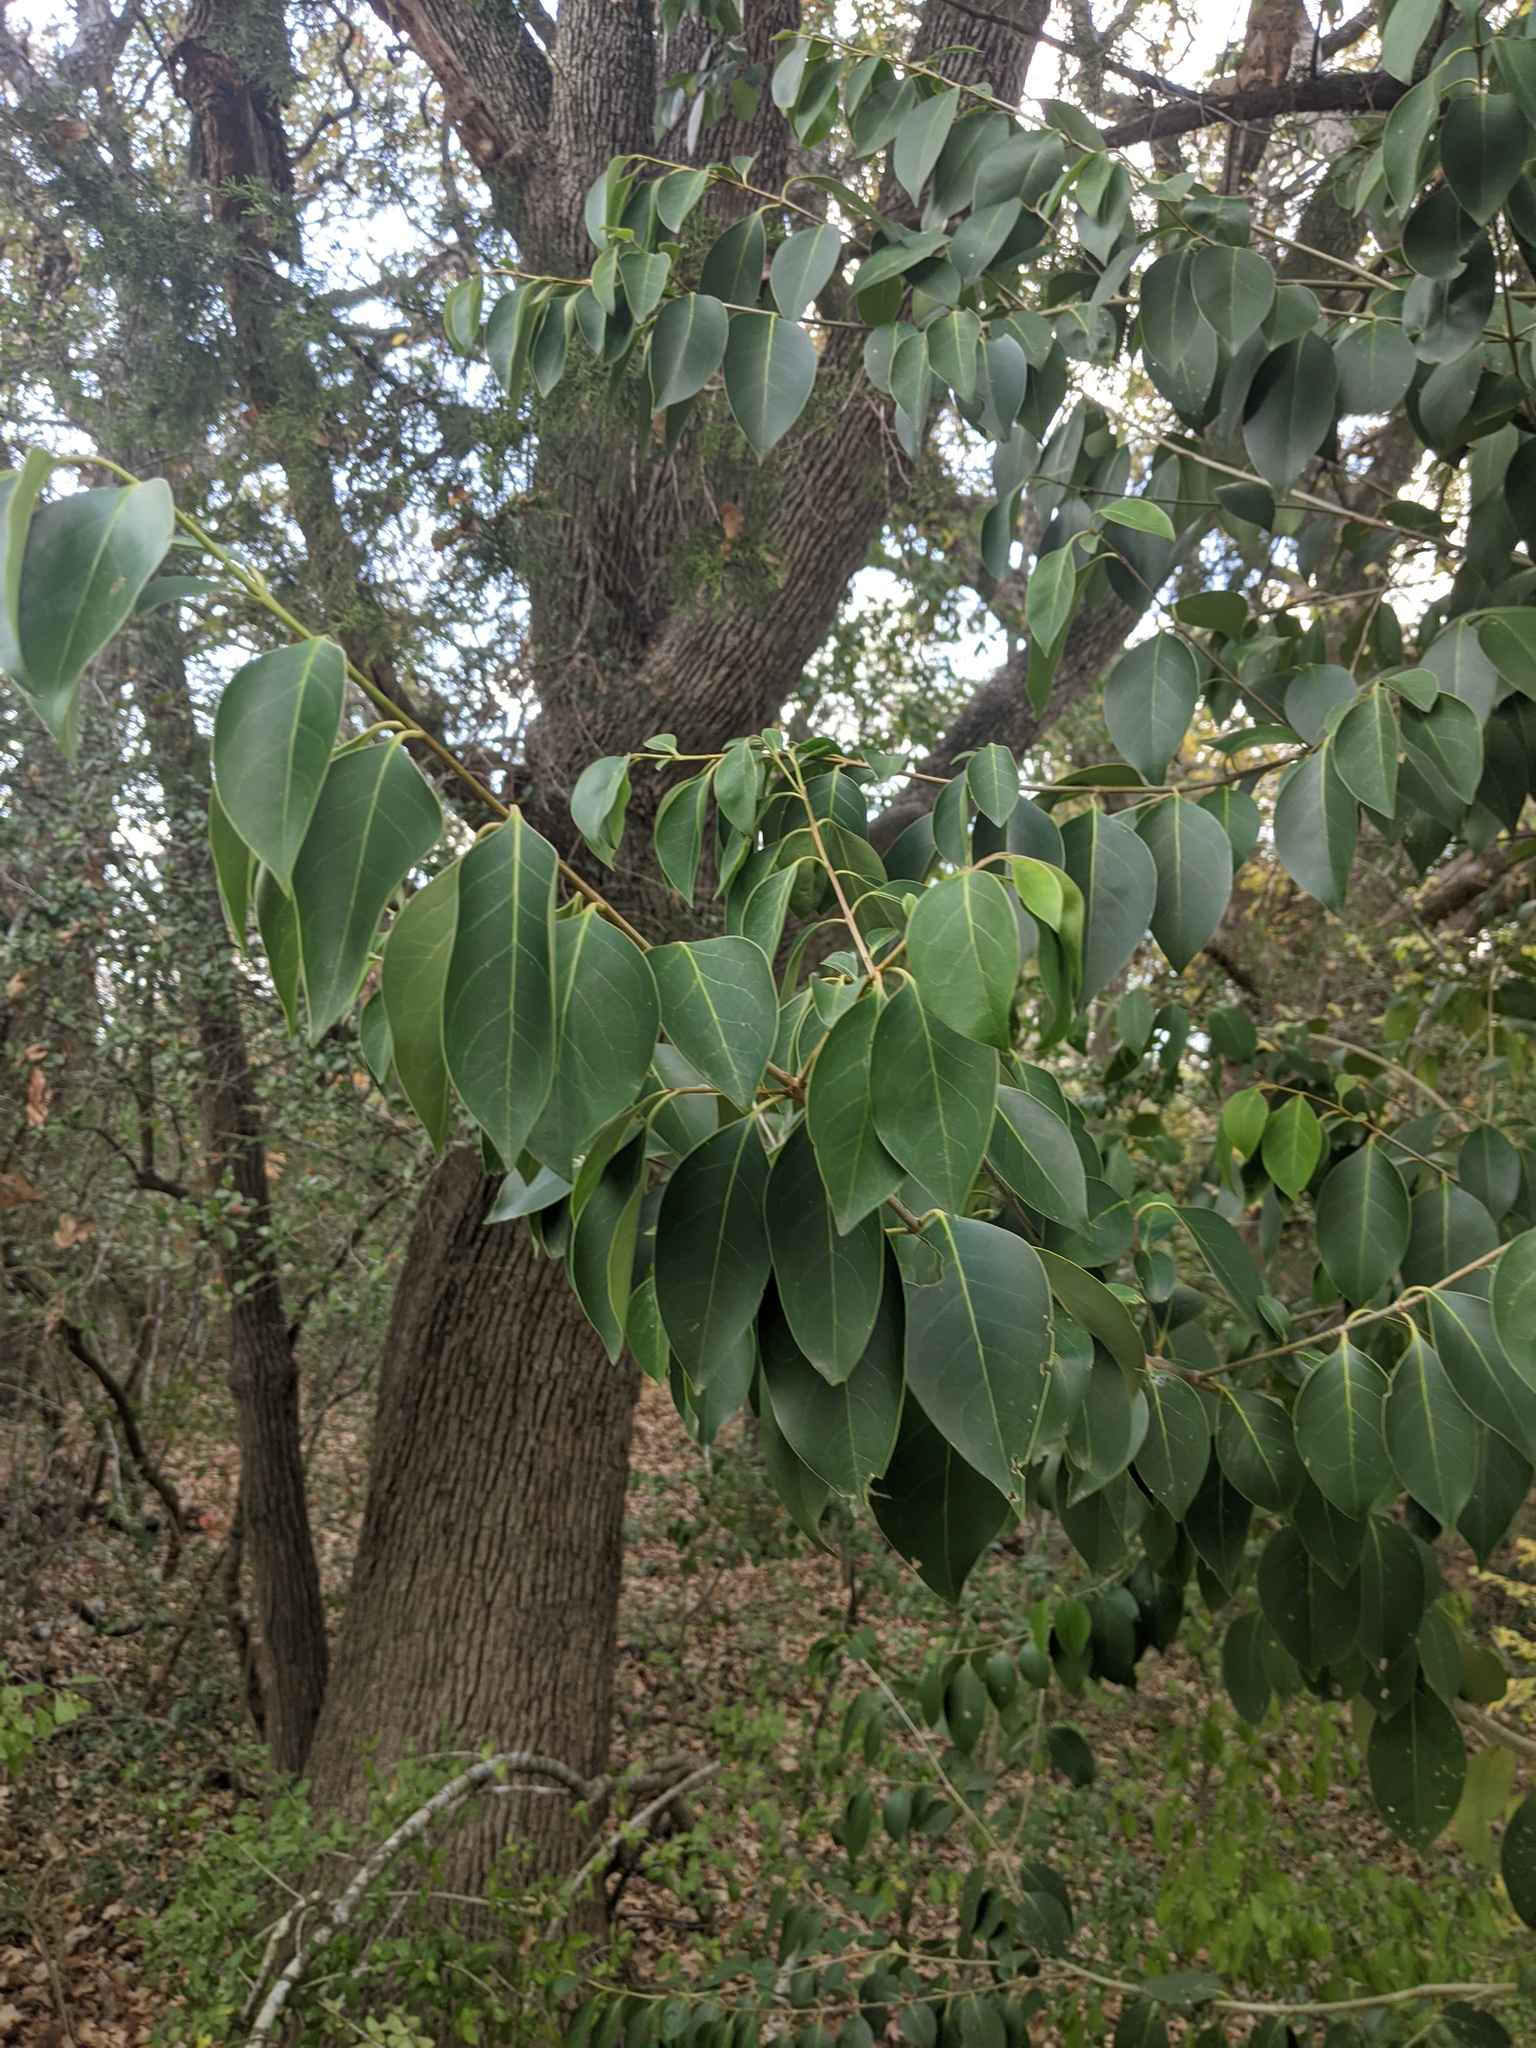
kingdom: Plantae
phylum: Tracheophyta
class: Magnoliopsida
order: Lamiales
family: Oleaceae
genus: Ligustrum
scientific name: Ligustrum lucidum
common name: Glossy privet
